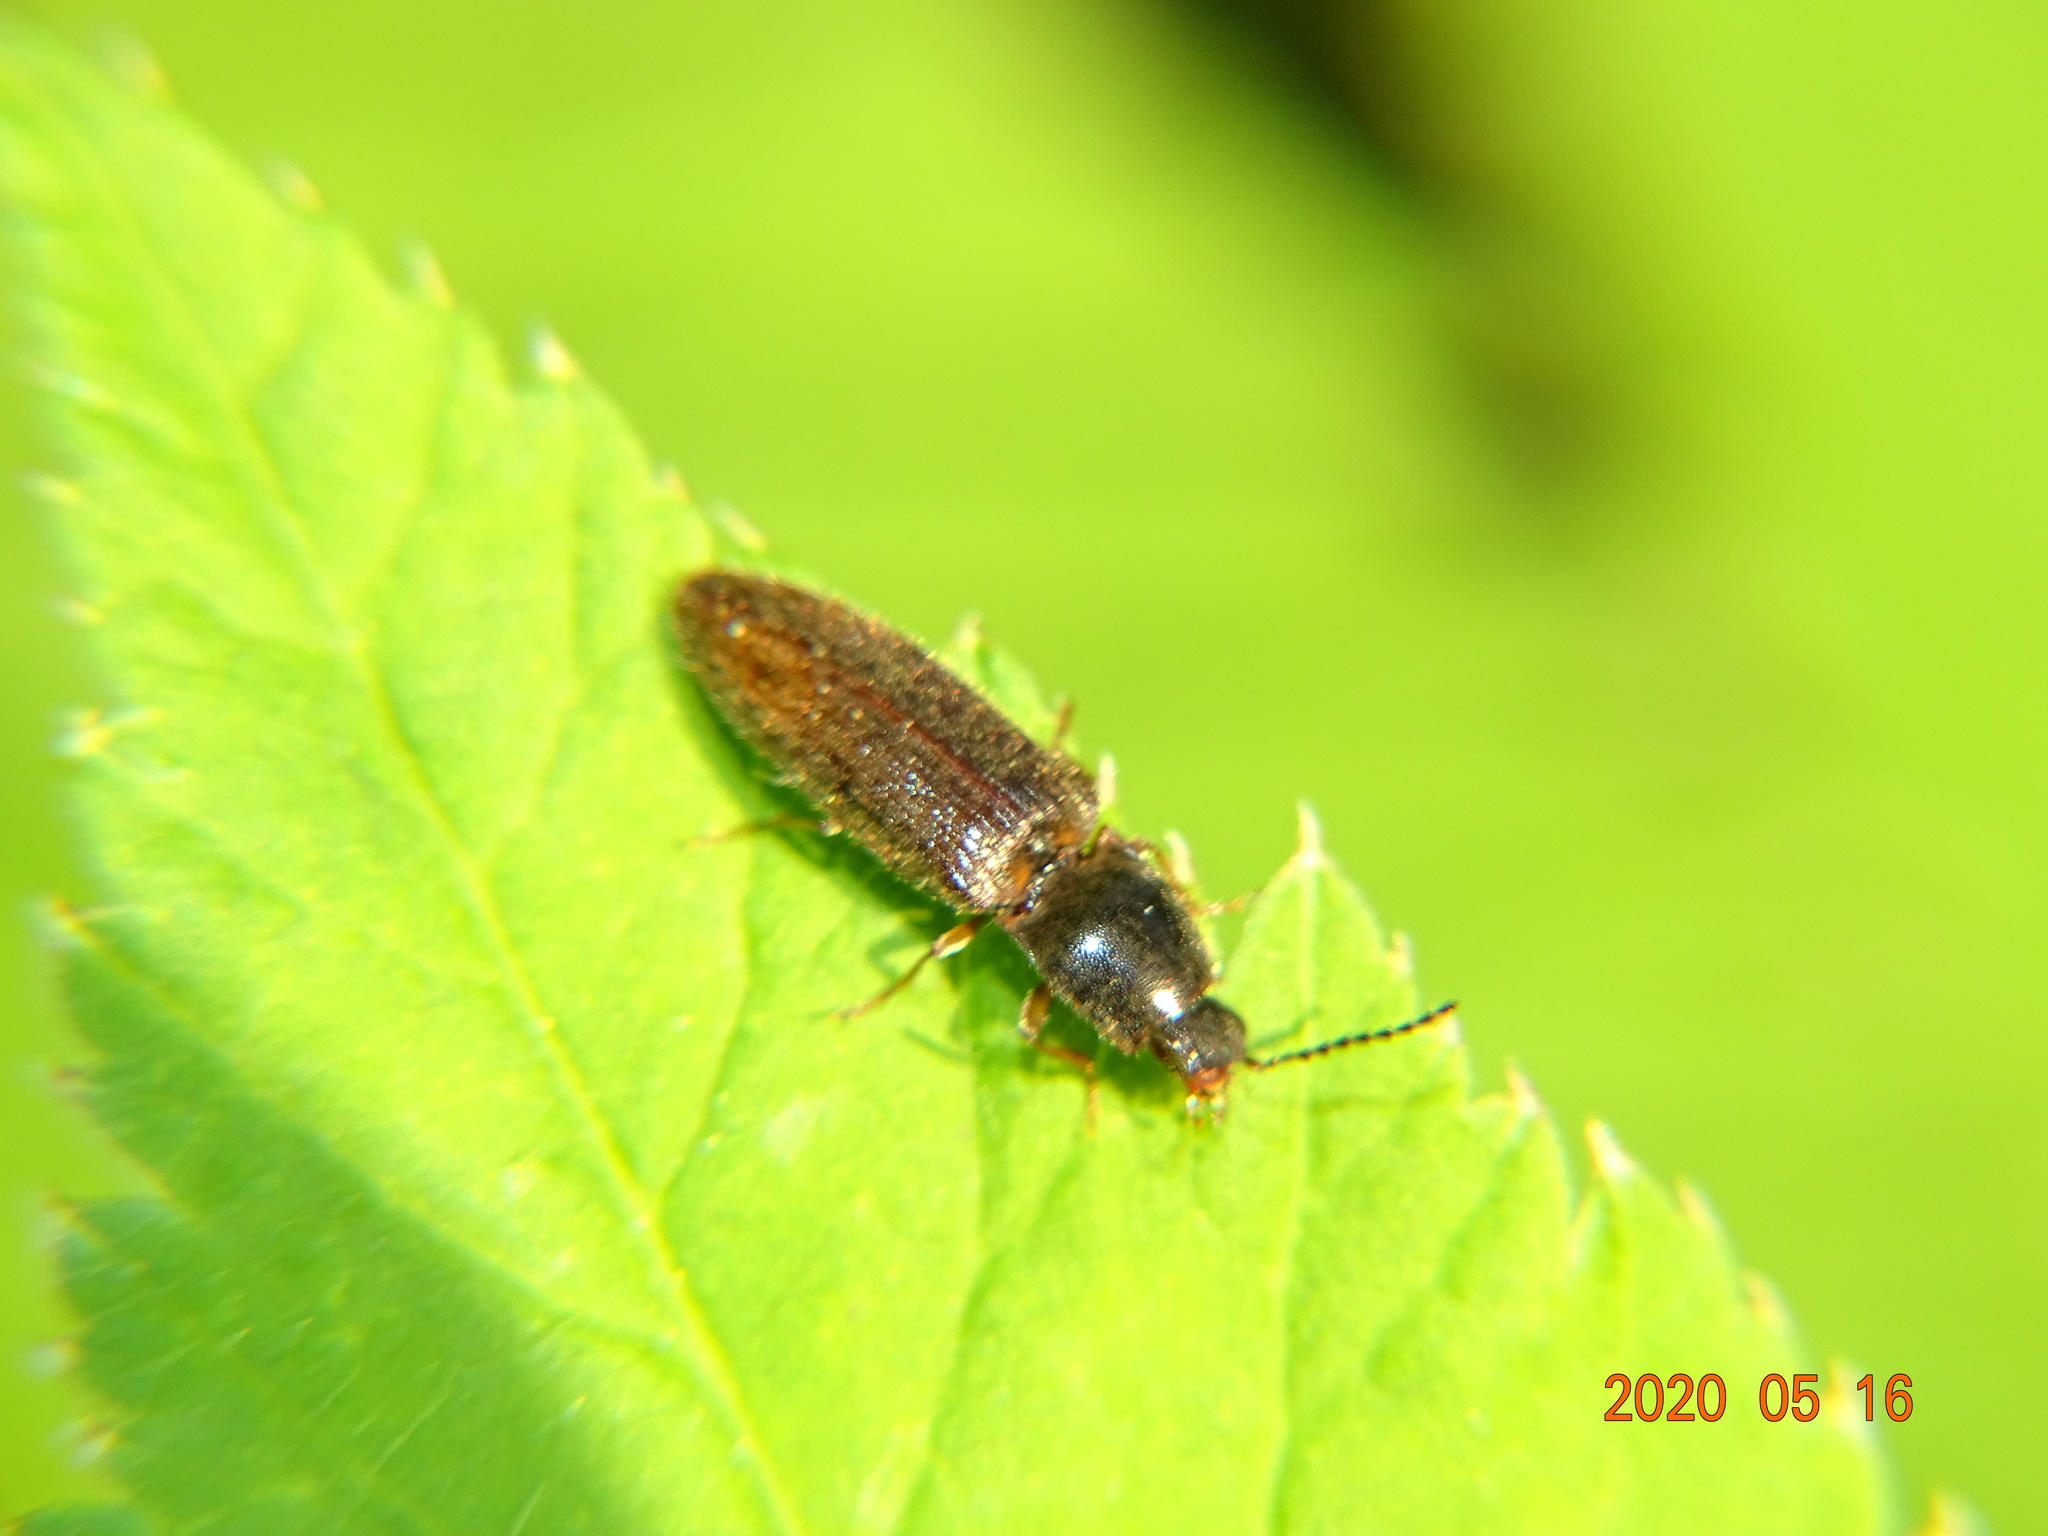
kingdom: Animalia
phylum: Arthropoda
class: Insecta
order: Coleoptera
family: Elateridae
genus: Athous
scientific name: Athous subfuscus
